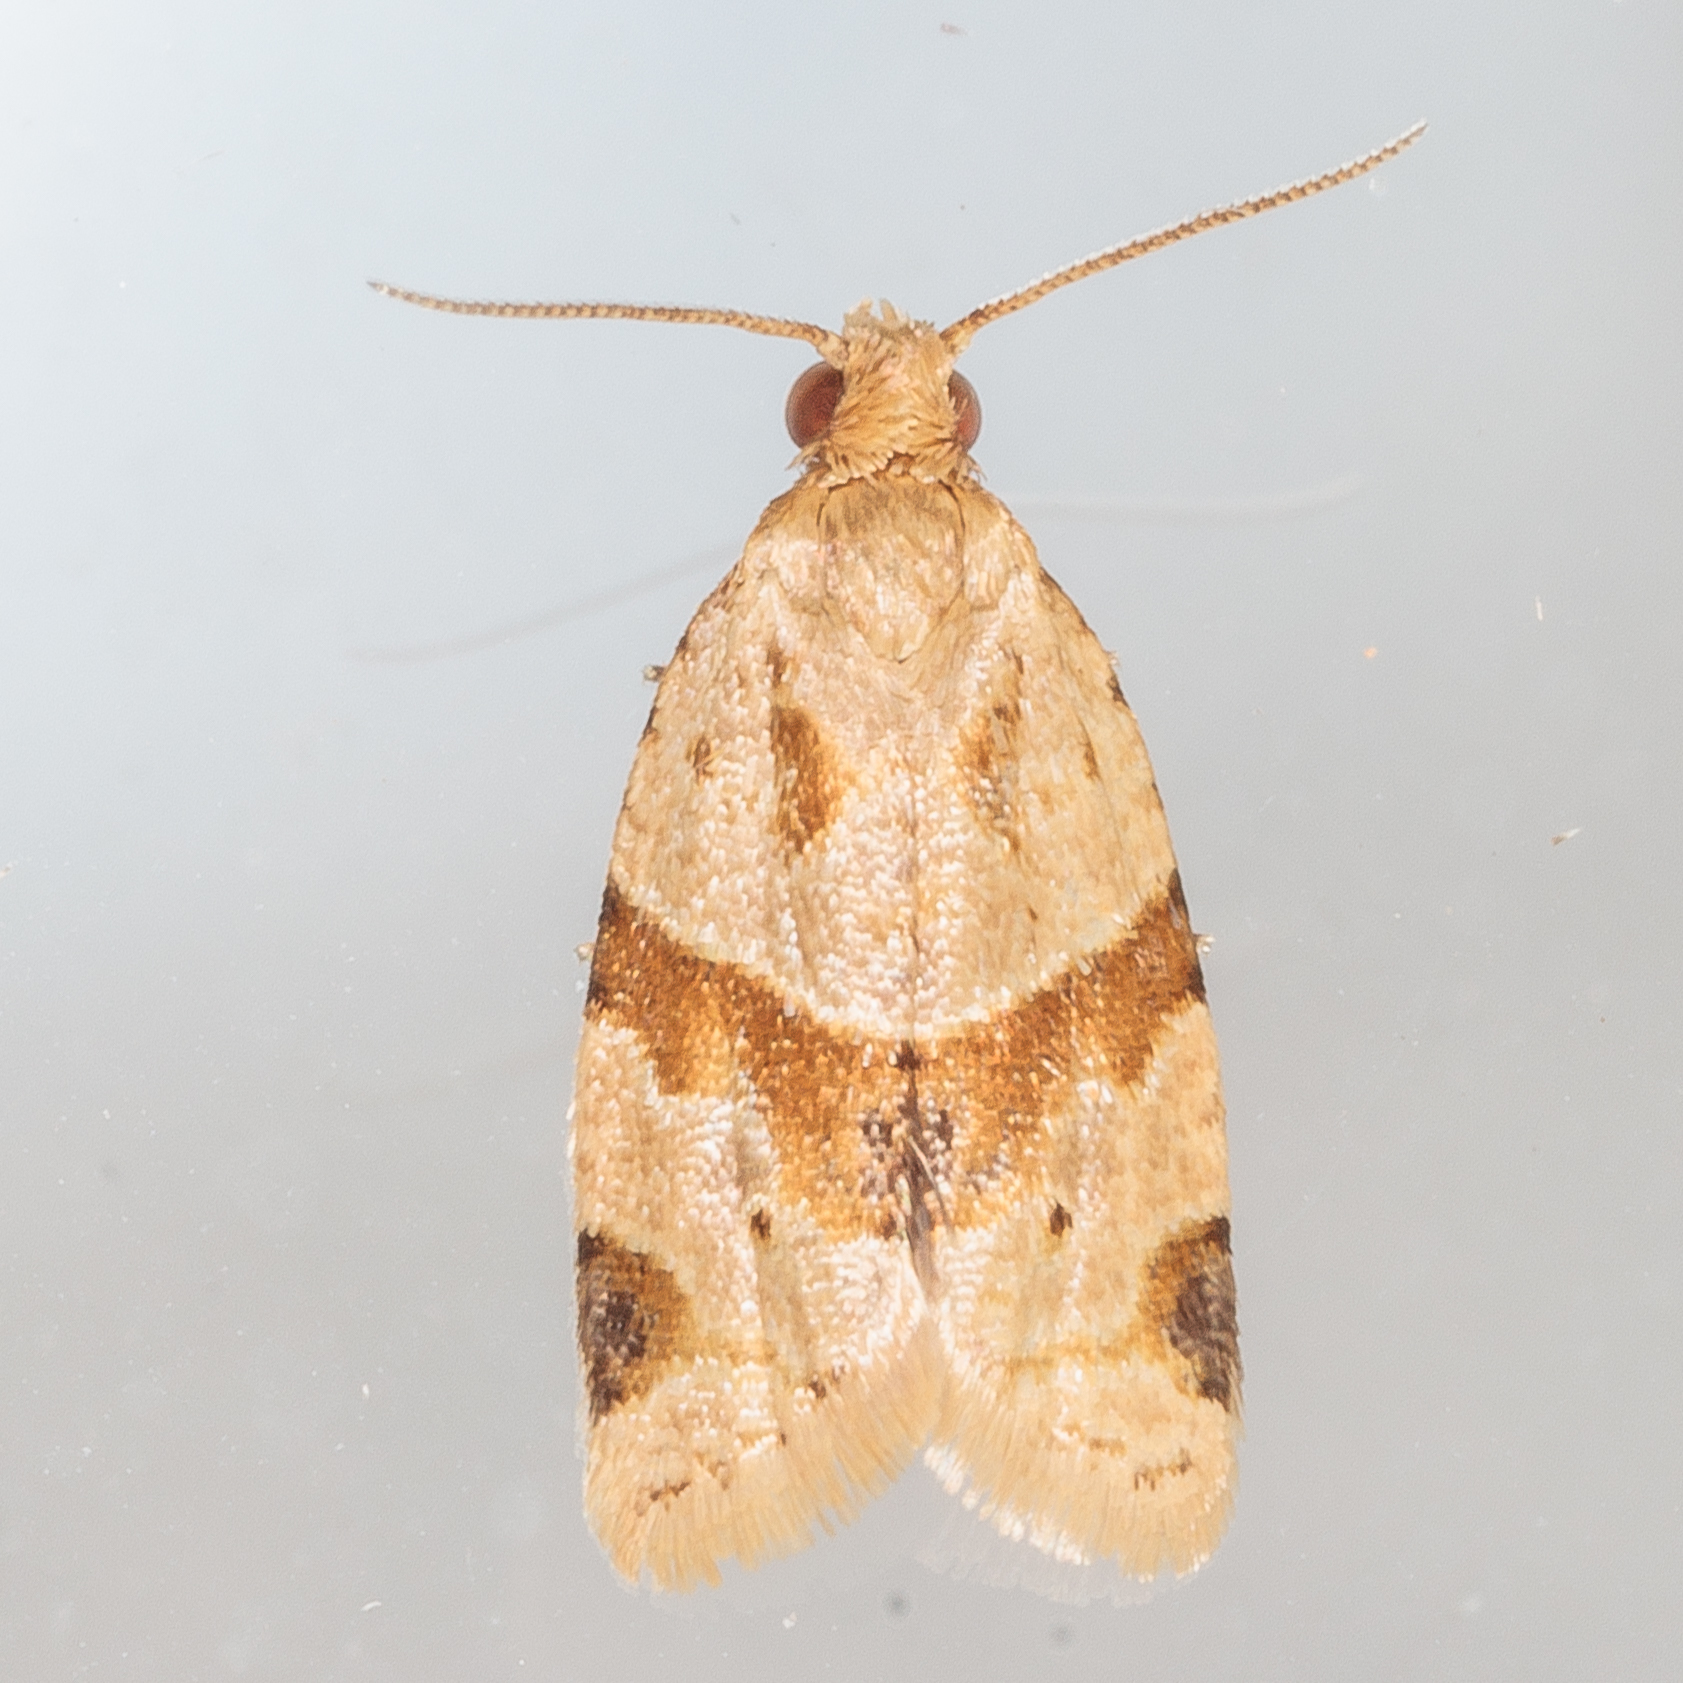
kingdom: Animalia
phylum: Arthropoda
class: Insecta
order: Lepidoptera
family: Tortricidae
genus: Clepsis
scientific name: Clepsis peritana
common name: Garden tortrix
